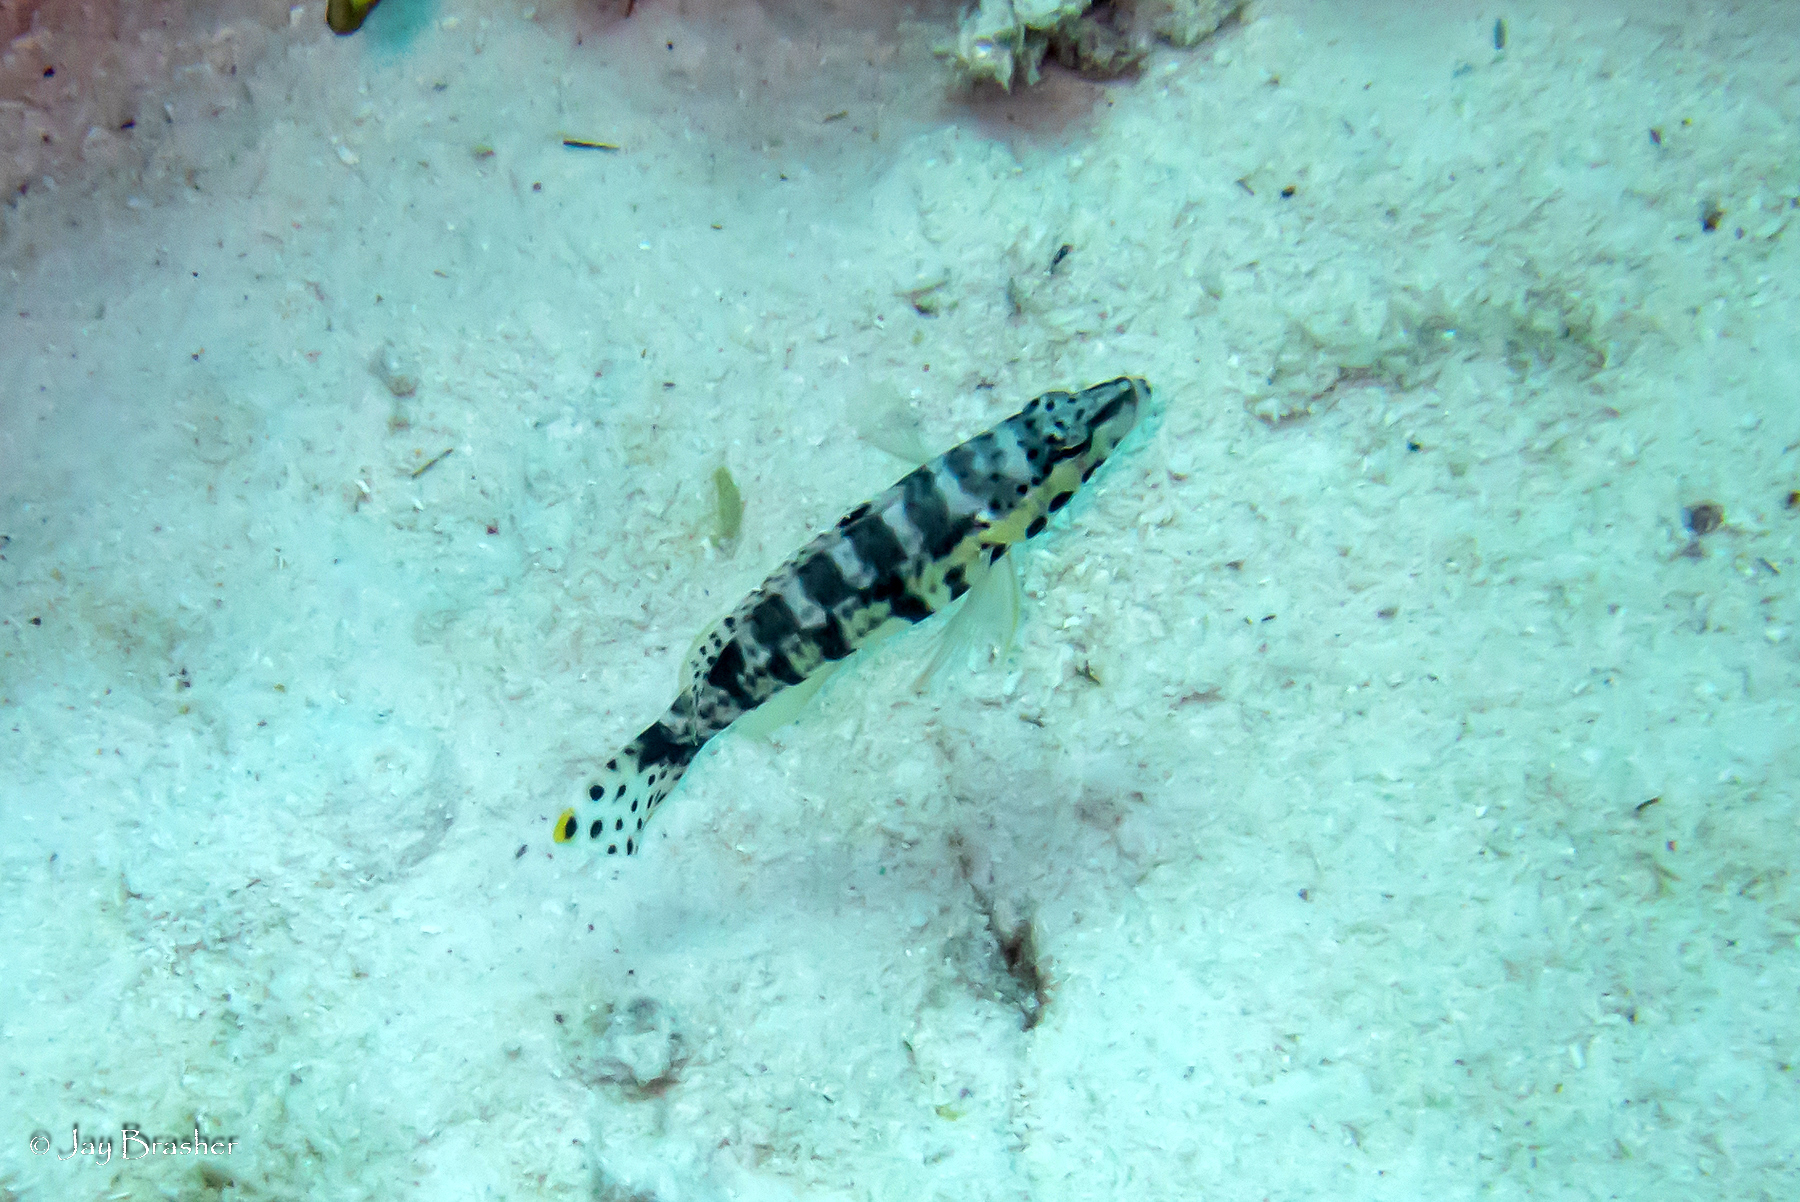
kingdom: Animalia
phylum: Chordata
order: Perciformes
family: Serranidae
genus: Serranus
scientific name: Serranus tigrinus
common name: Harlequin bass
